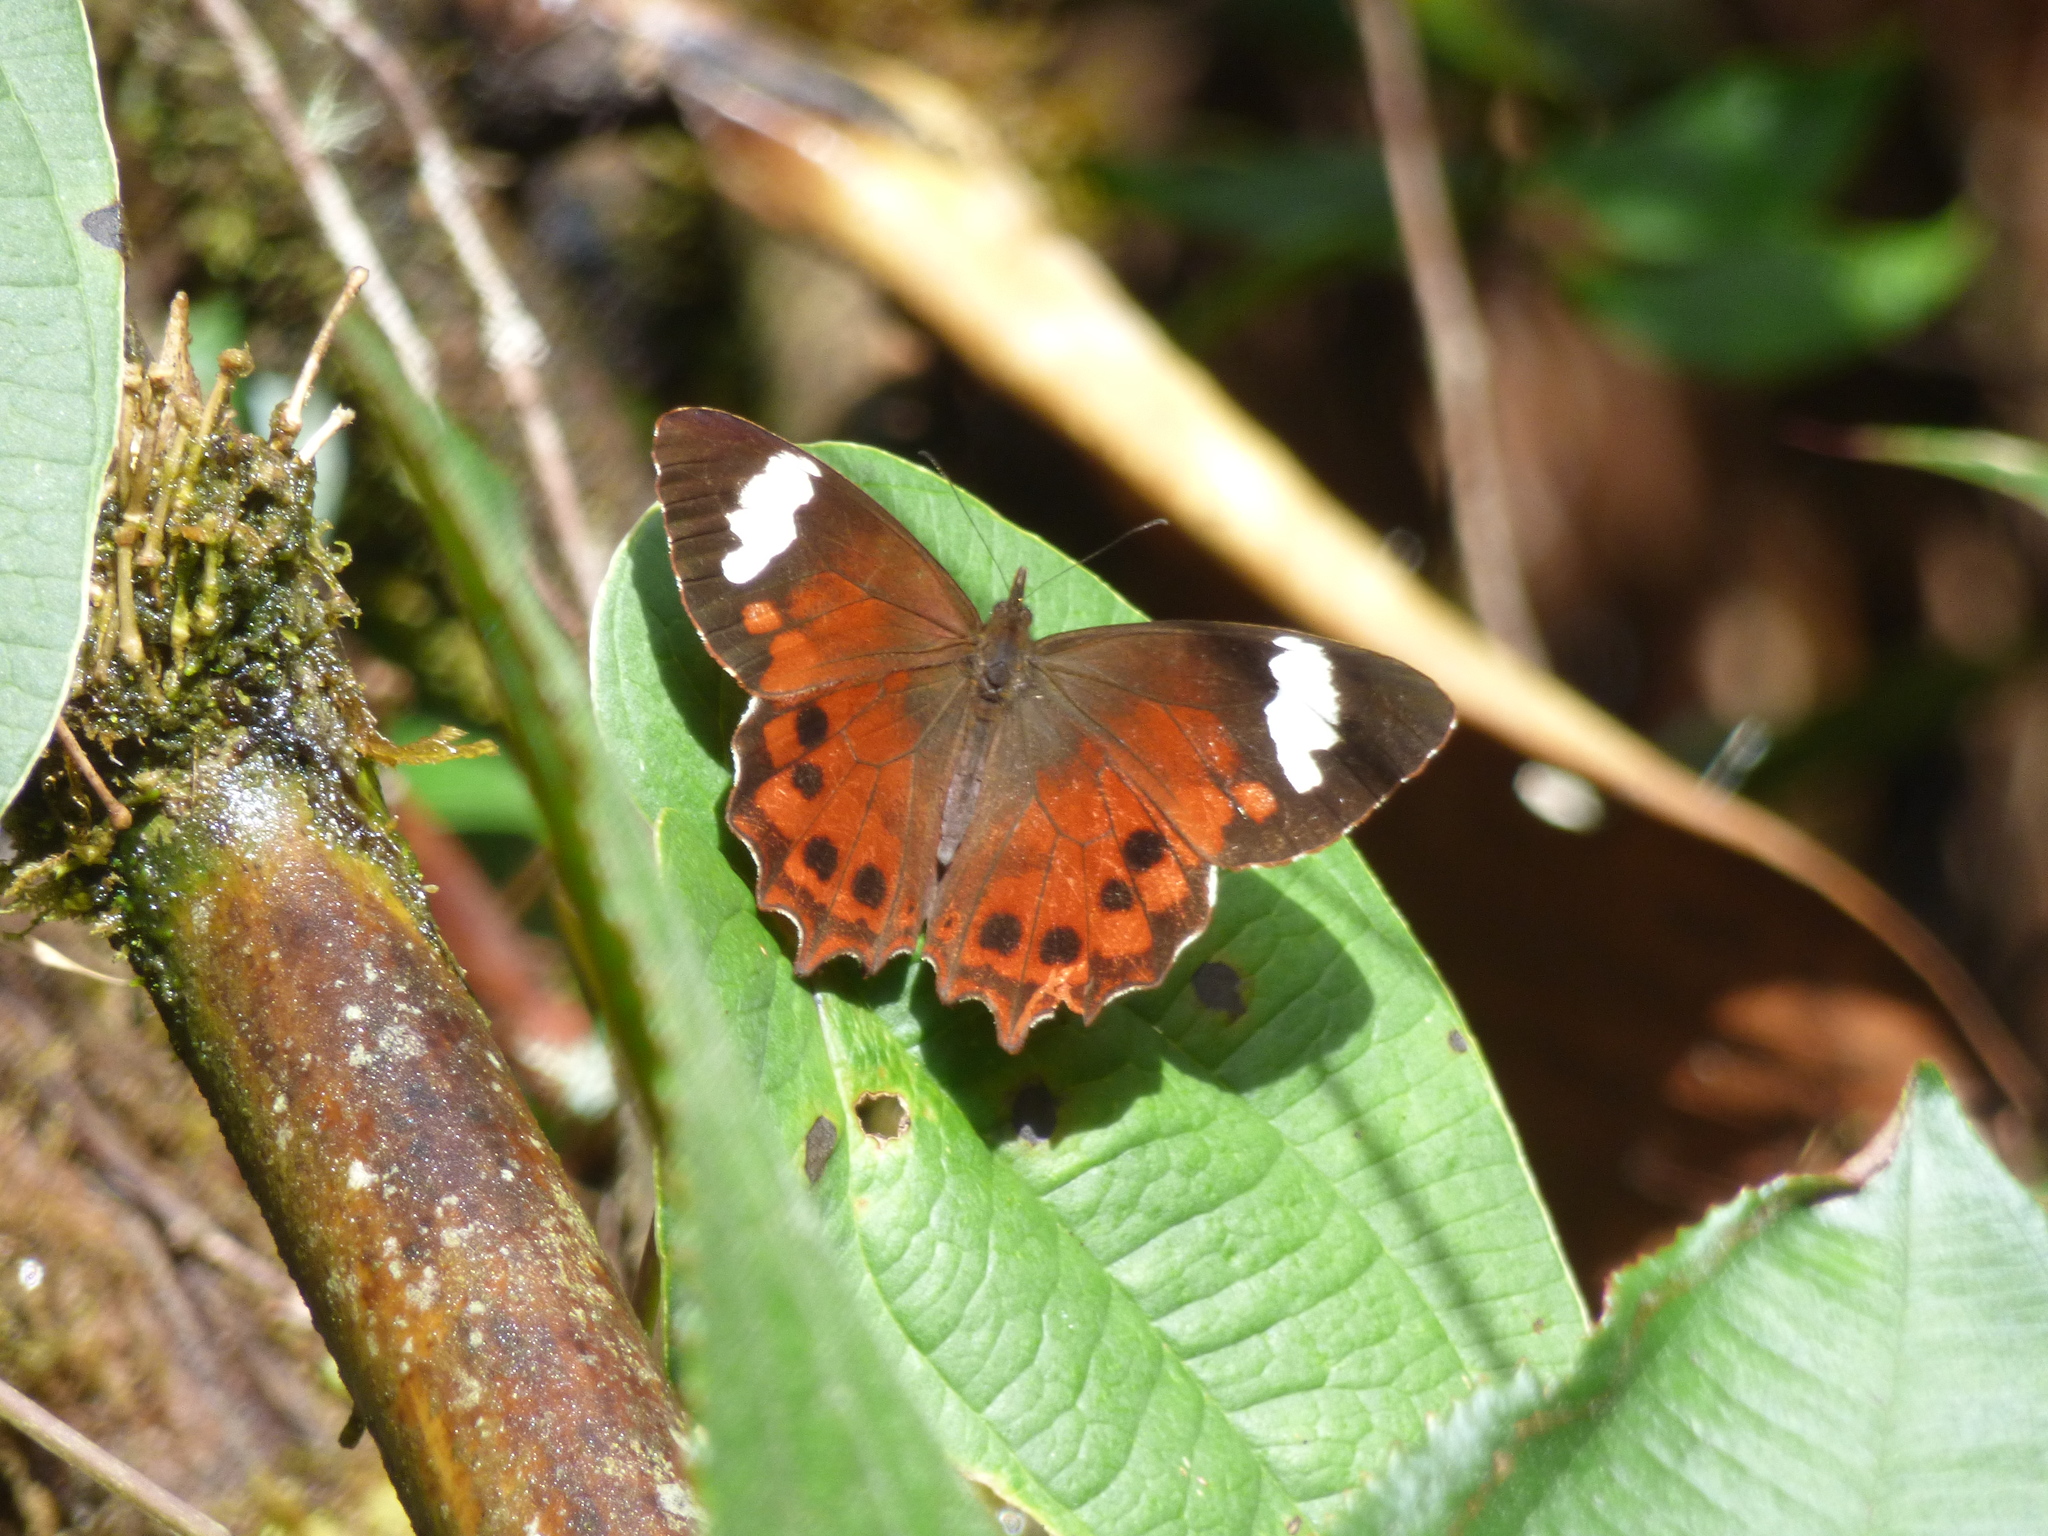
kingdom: Animalia
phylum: Arthropoda
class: Insecta
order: Lepidoptera
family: Nymphalidae
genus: Lasiophila
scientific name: Lasiophila prosymna
